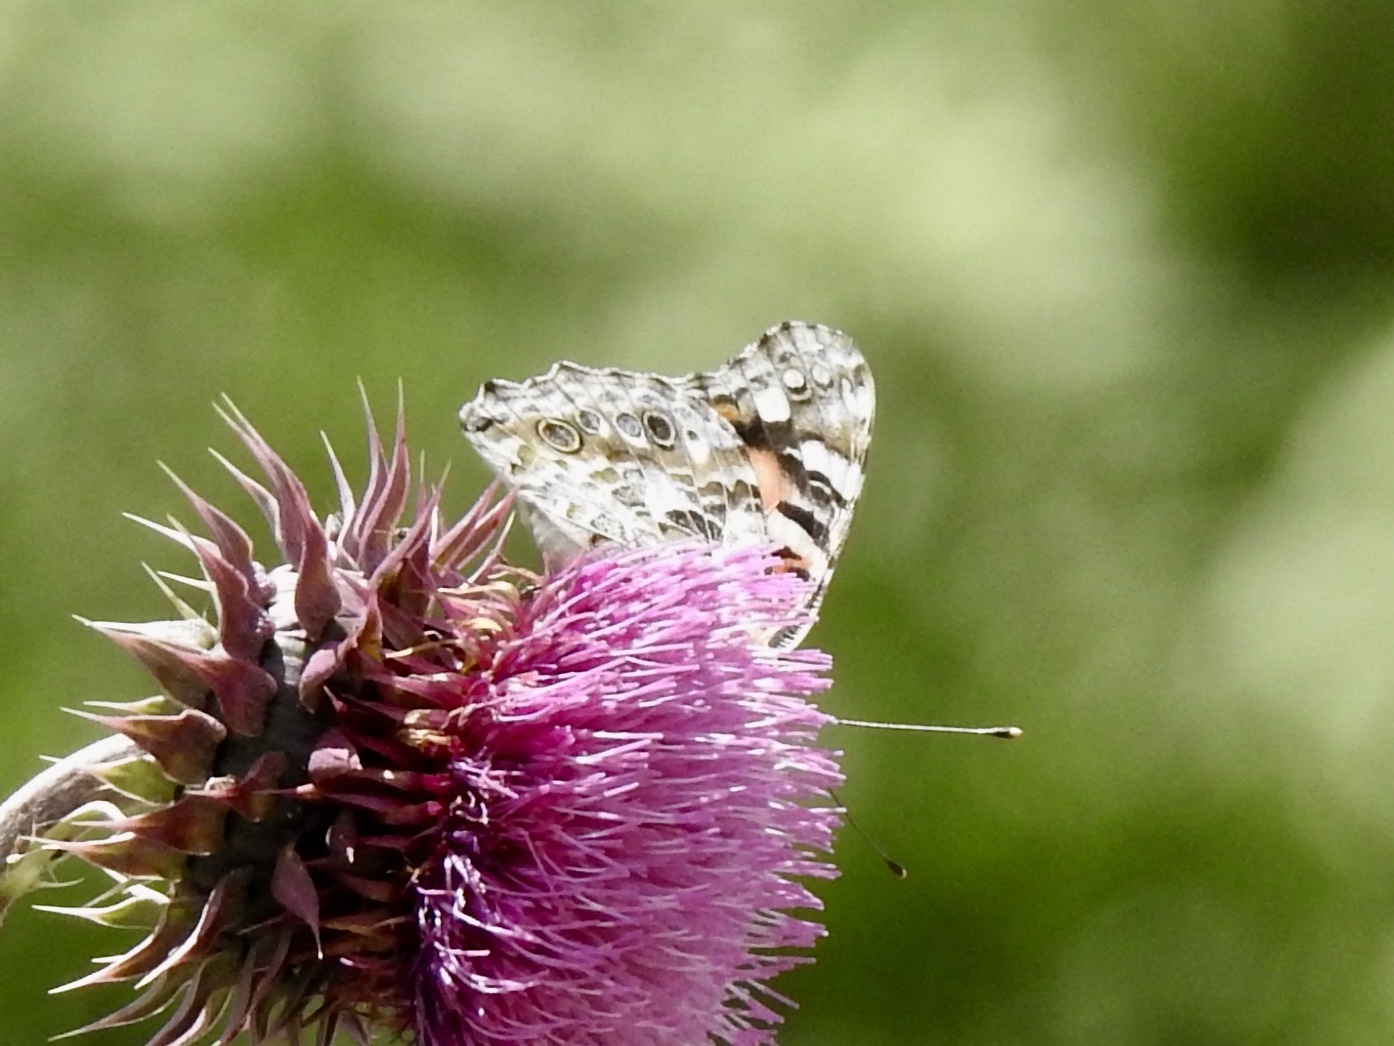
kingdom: Animalia
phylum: Arthropoda
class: Insecta
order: Lepidoptera
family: Nymphalidae
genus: Vanessa
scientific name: Vanessa cardui
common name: Painted lady
